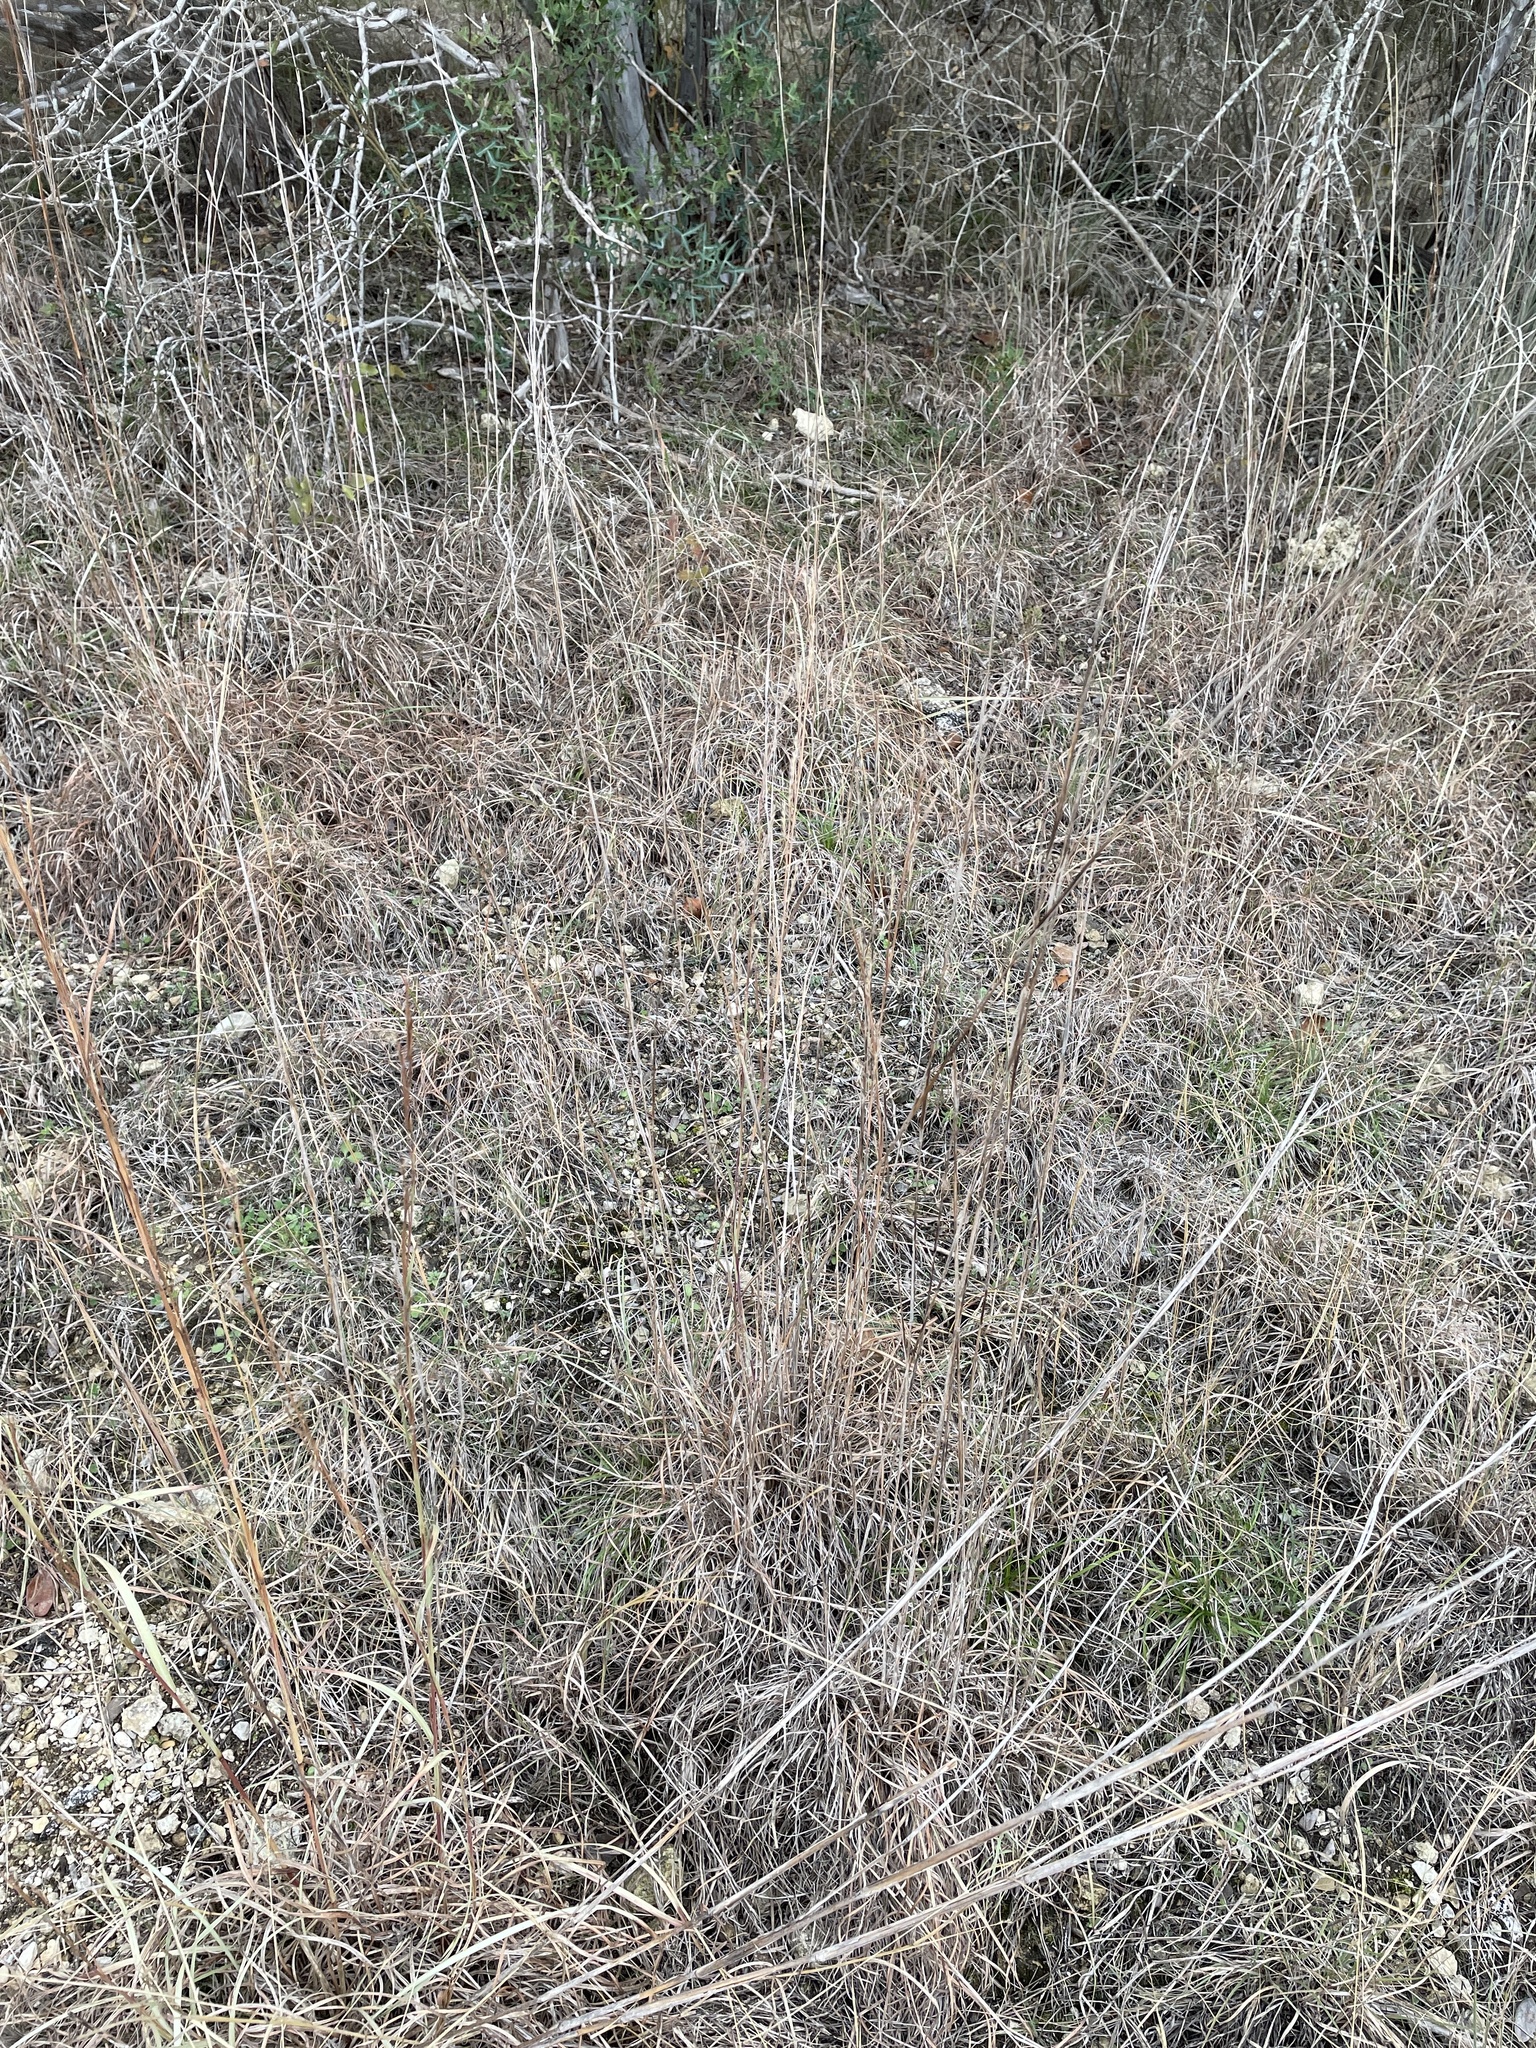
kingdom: Plantae
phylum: Tracheophyta
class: Liliopsida
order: Poales
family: Poaceae
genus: Schizachyrium
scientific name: Schizachyrium scoparium
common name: Little bluestem
